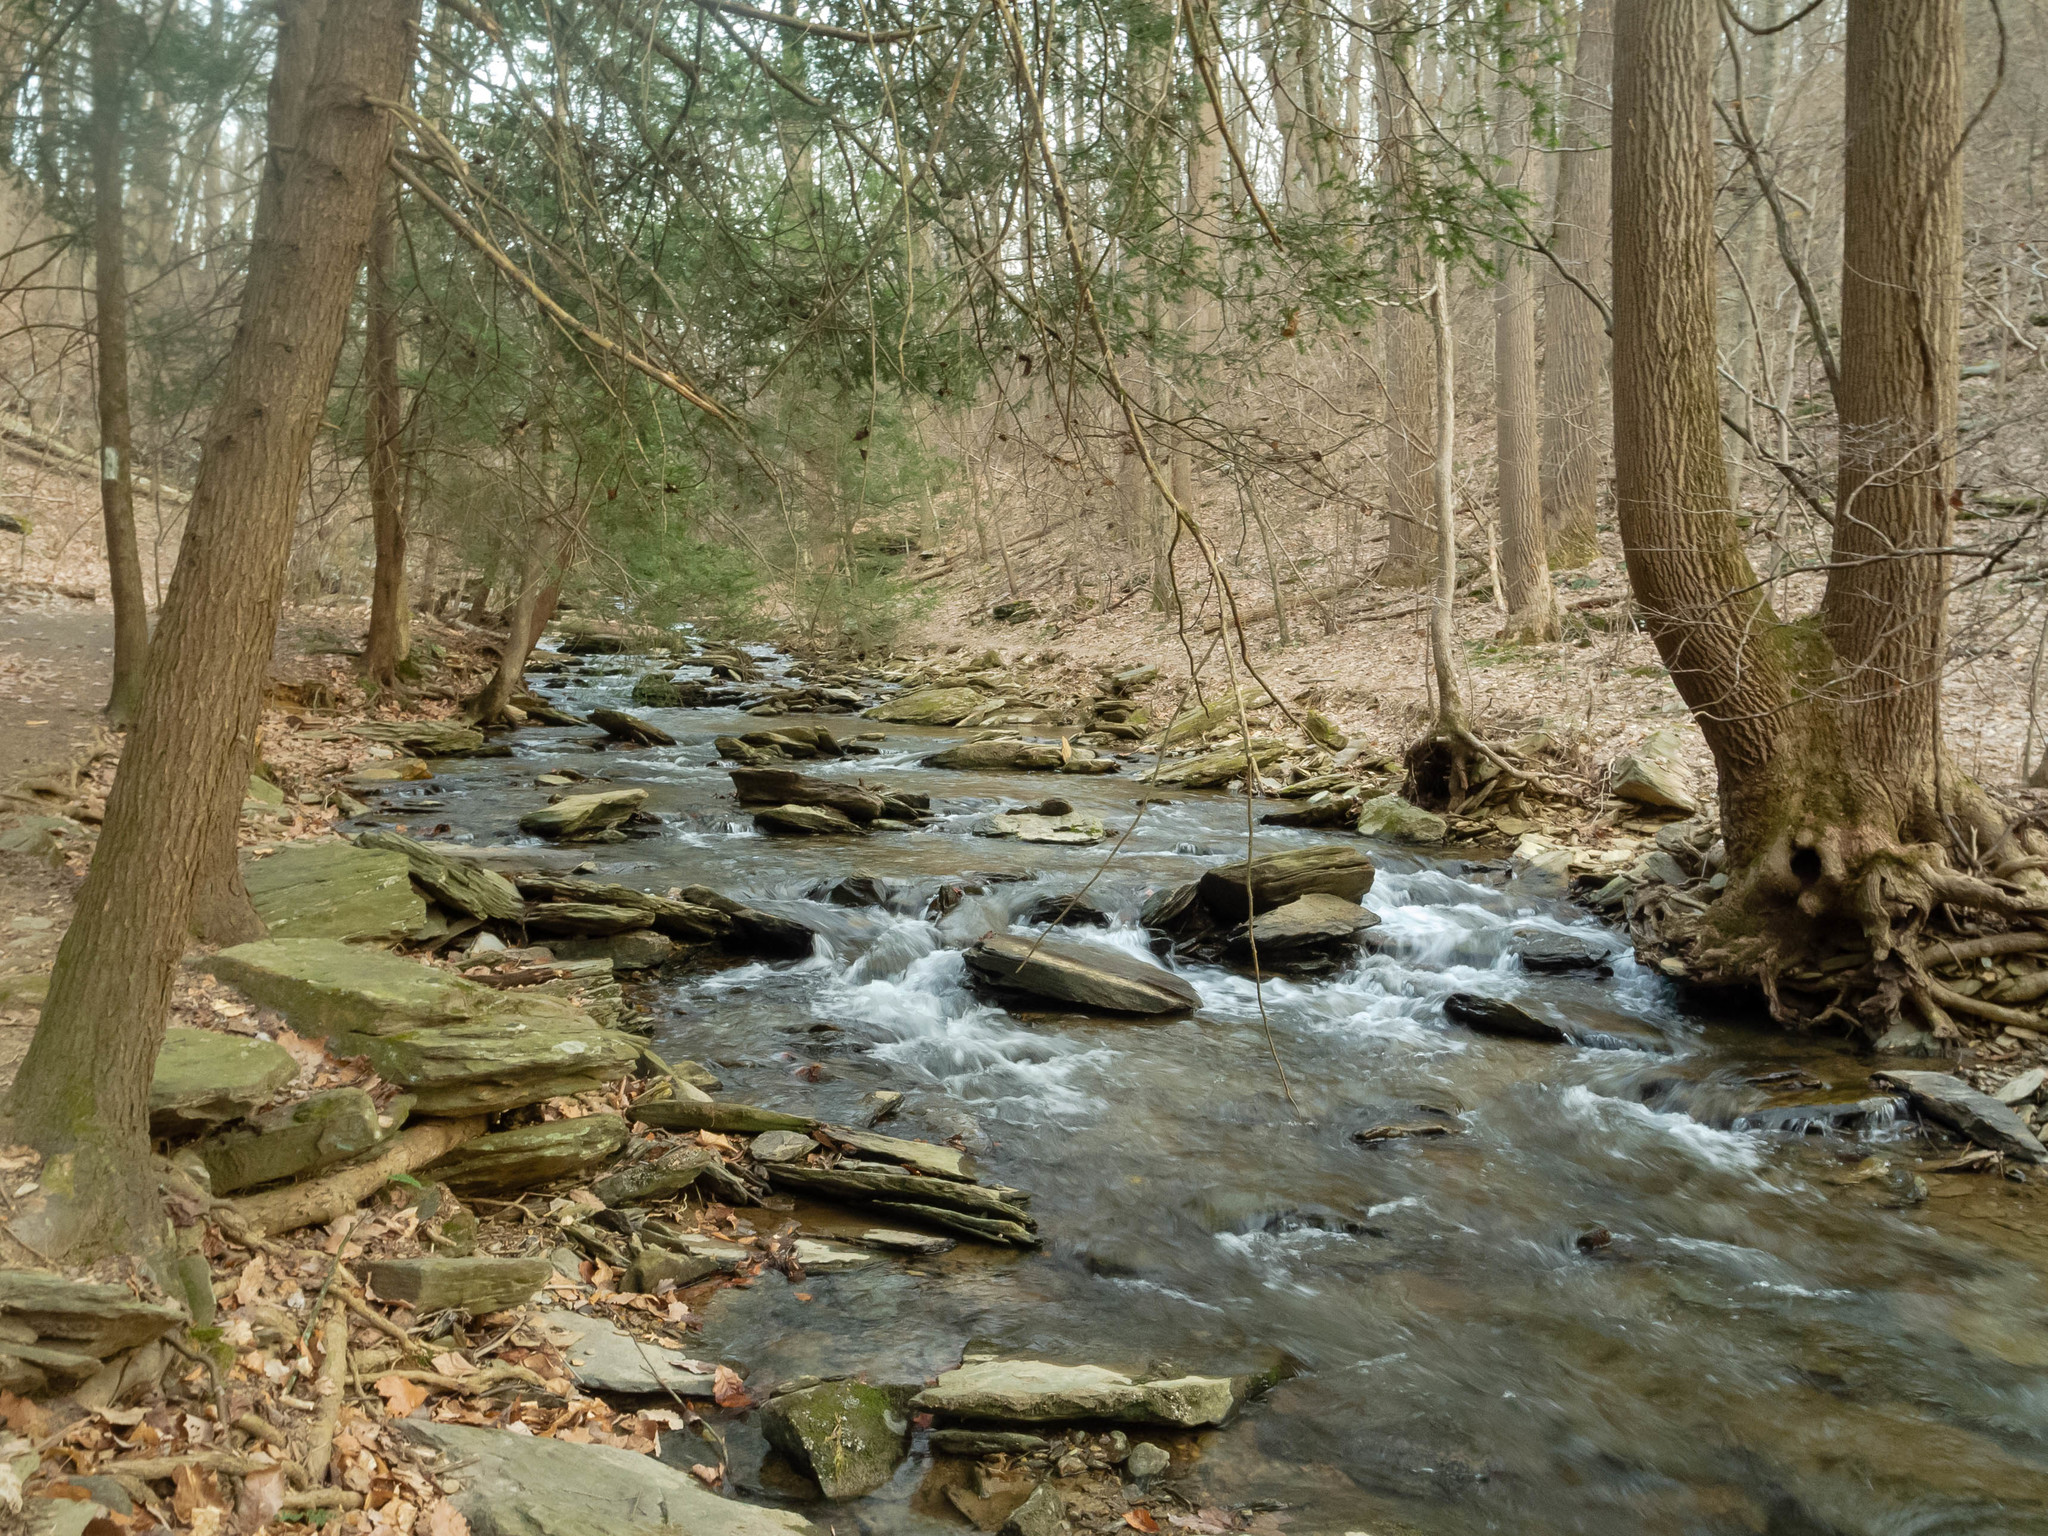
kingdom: Plantae
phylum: Tracheophyta
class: Pinopsida
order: Pinales
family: Pinaceae
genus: Tsuga
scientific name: Tsuga canadensis
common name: Eastern hemlock
